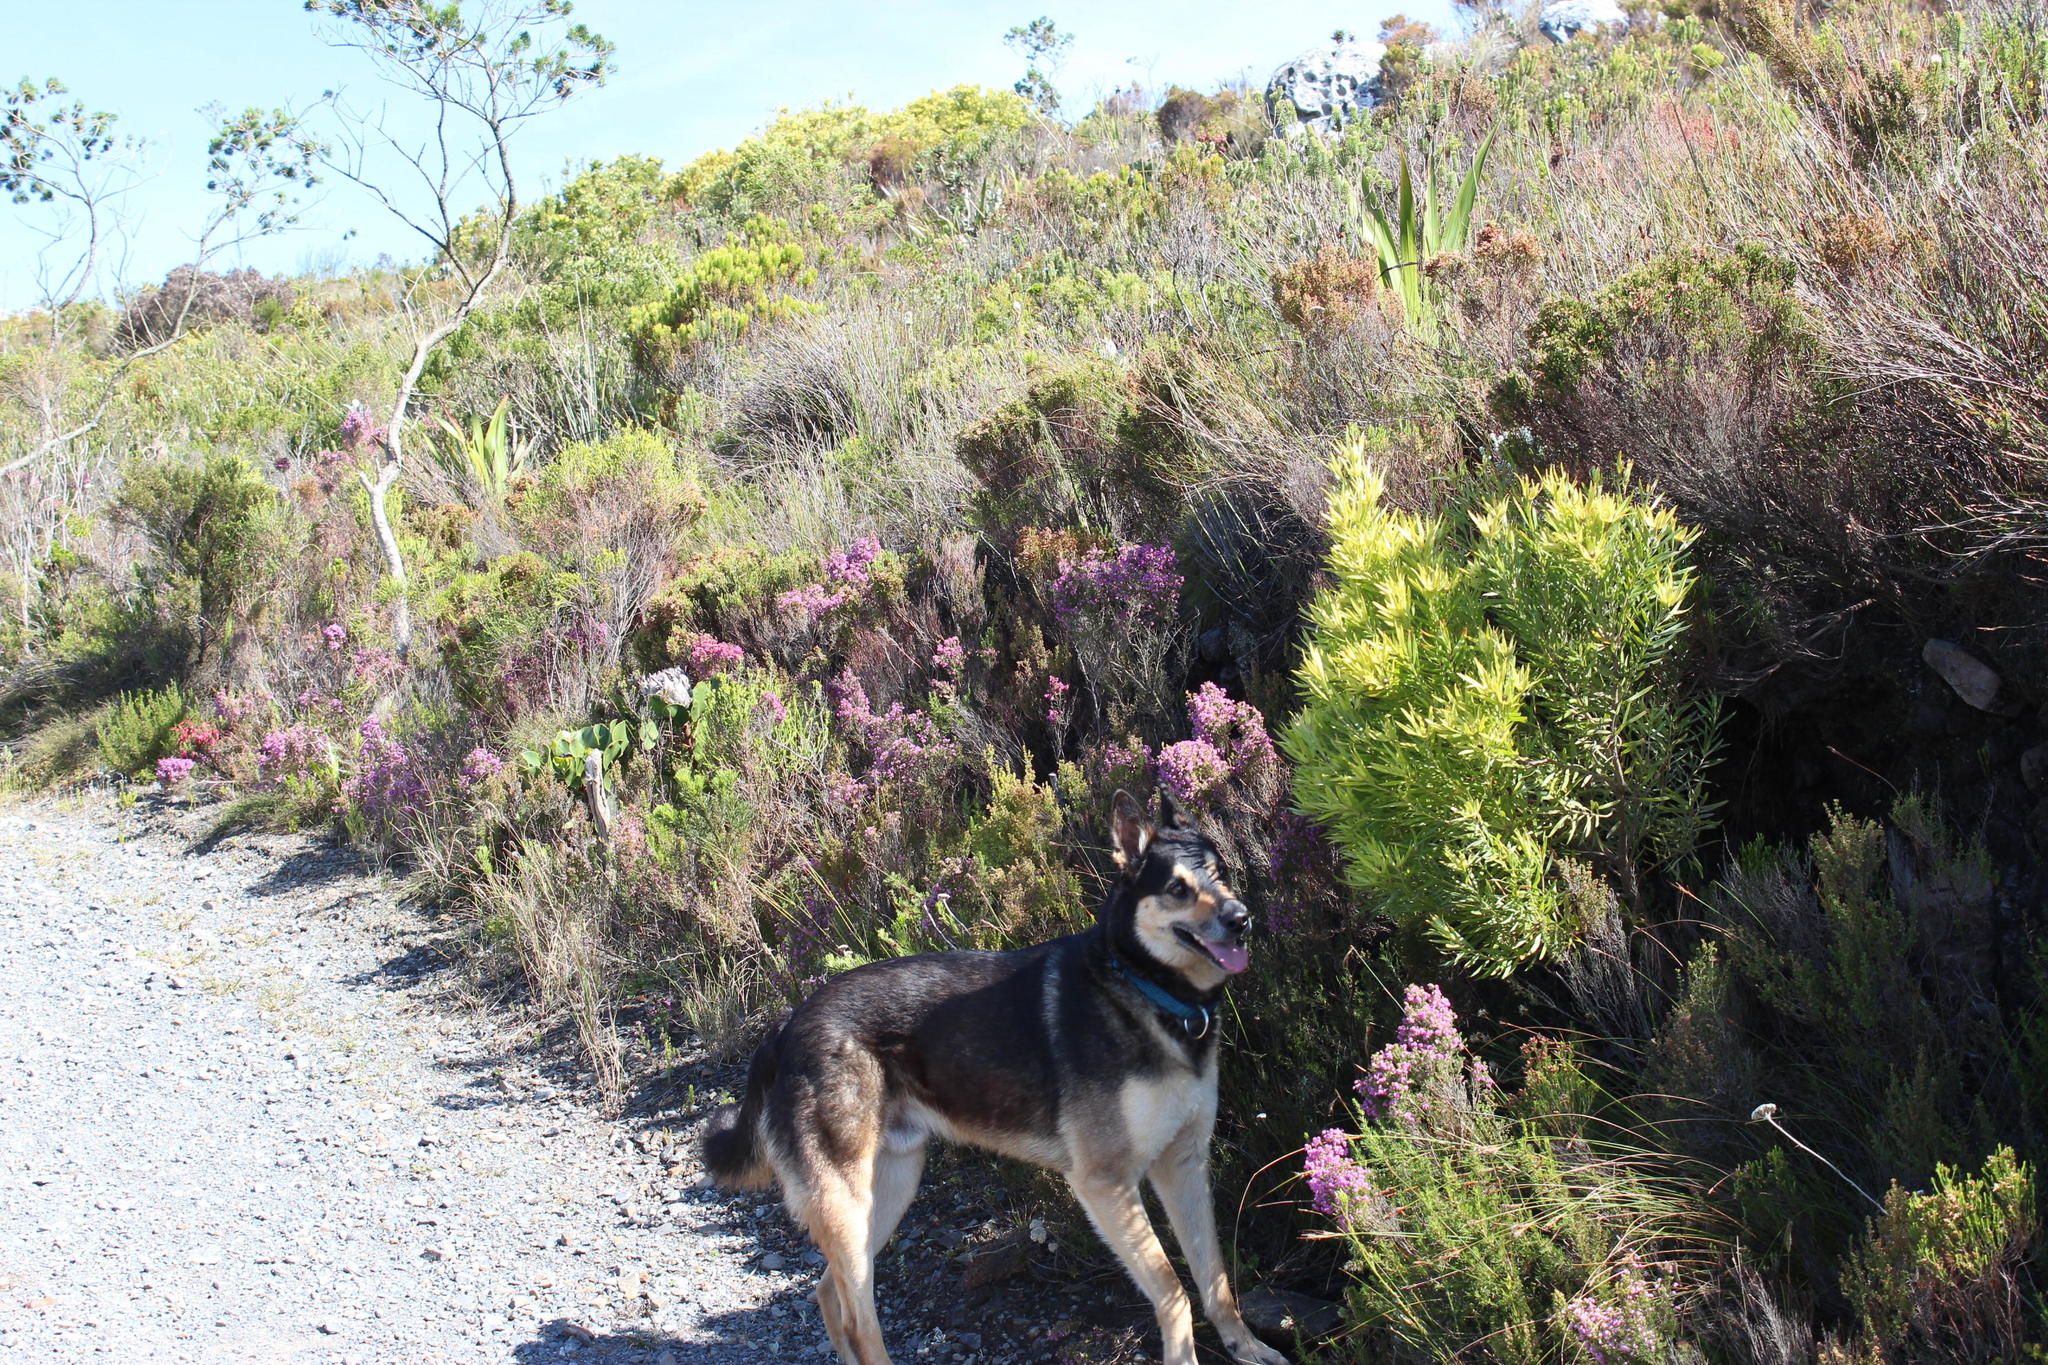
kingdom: Plantae
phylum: Tracheophyta
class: Magnoliopsida
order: Ericales
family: Ericaceae
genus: Erica
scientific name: Erica hirtiflora
